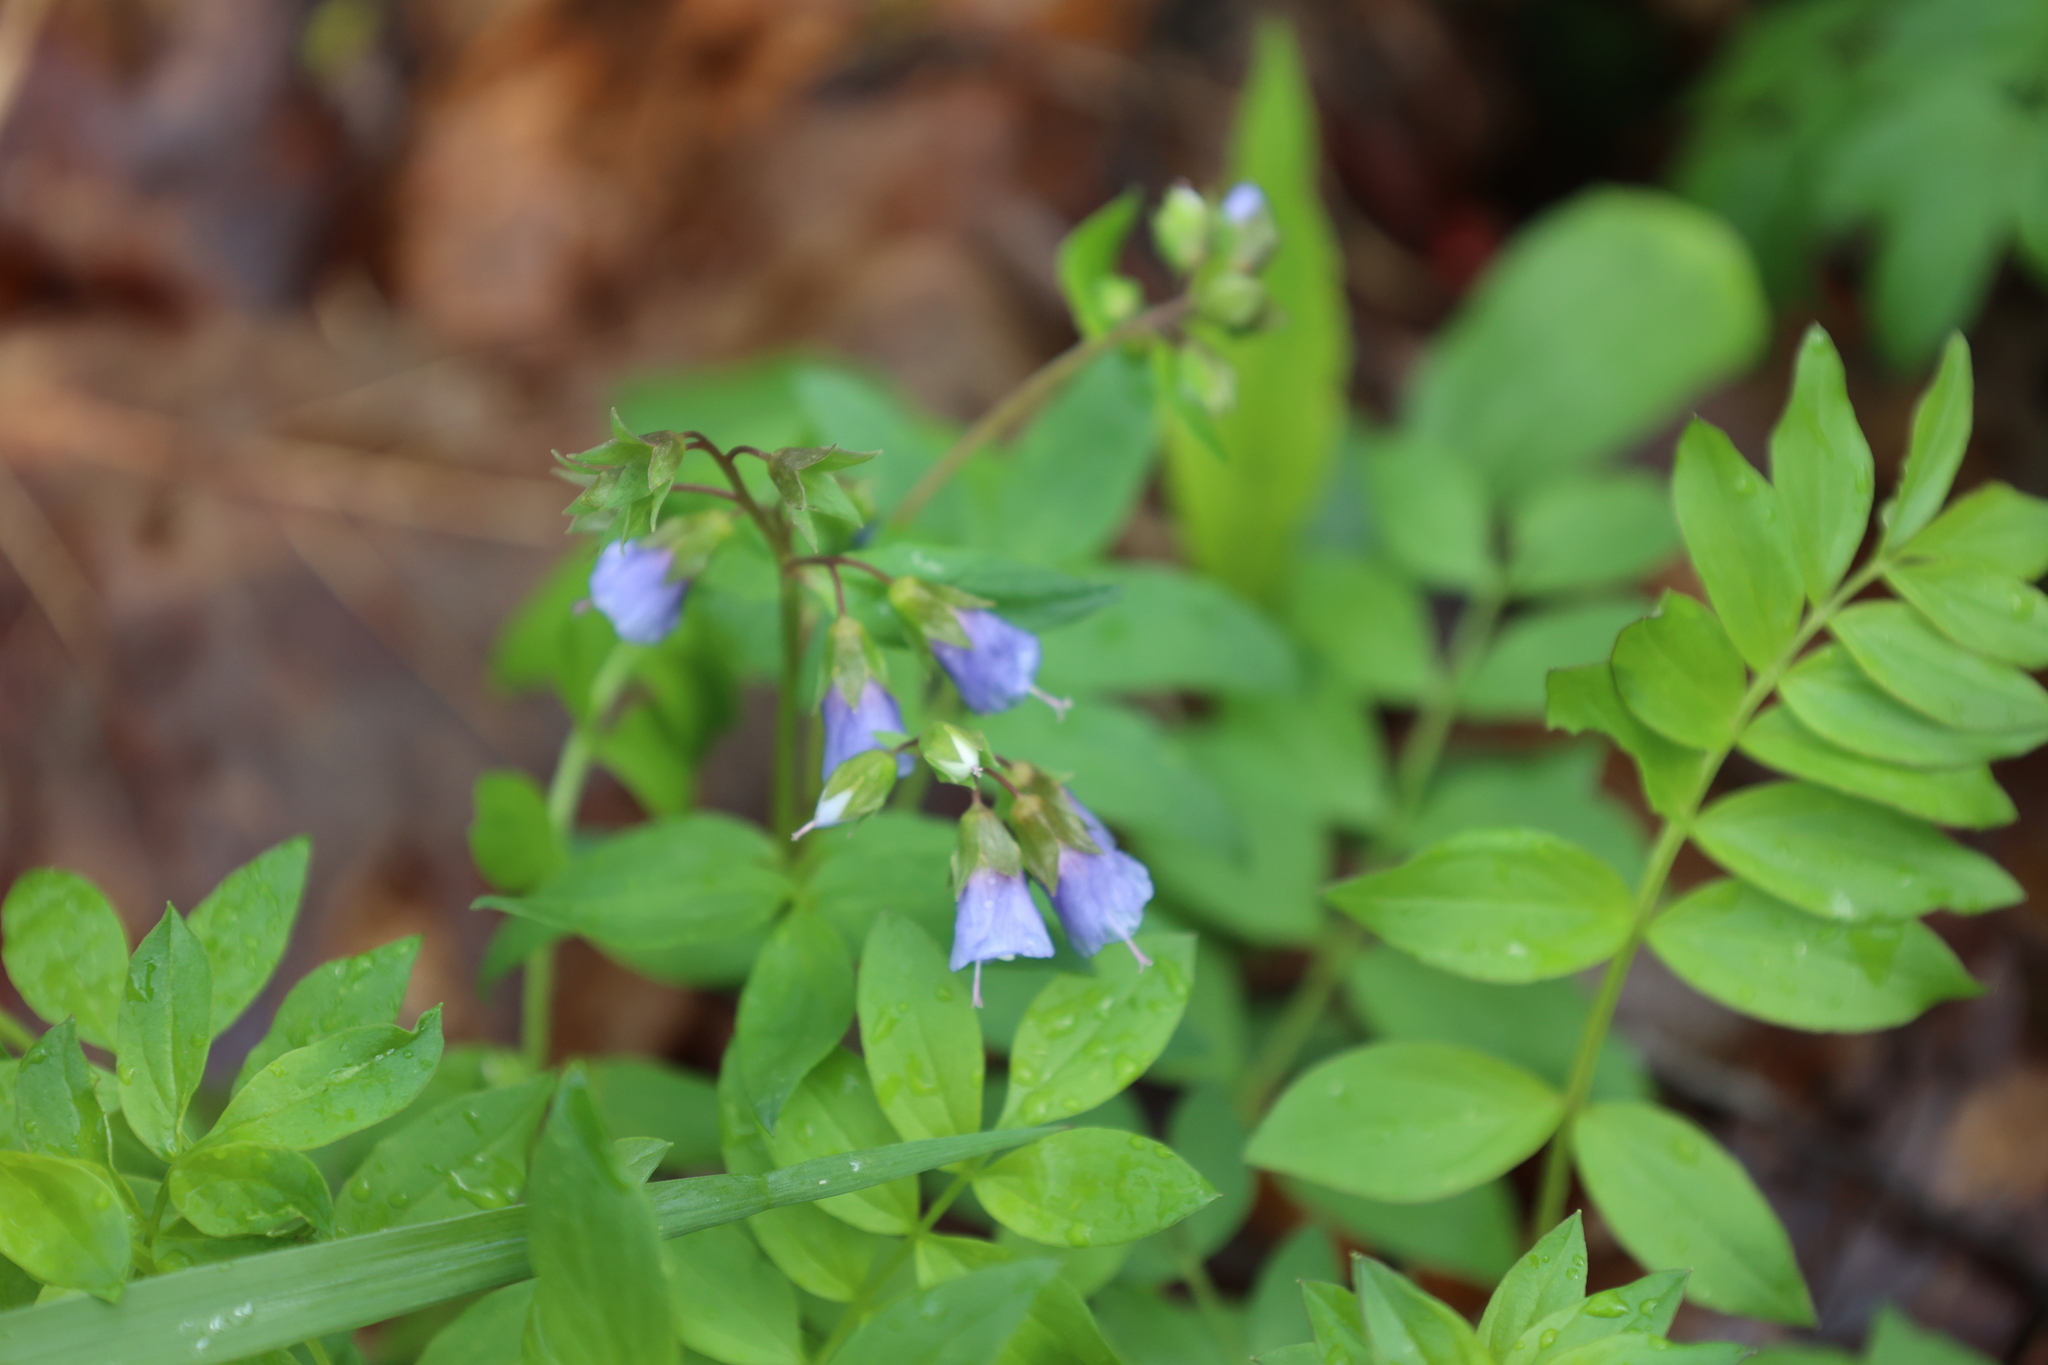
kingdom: Plantae
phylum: Tracheophyta
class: Magnoliopsida
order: Ericales
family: Polemoniaceae
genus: Polemonium
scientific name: Polemonium reptans
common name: Creeping jacob's-ladder
